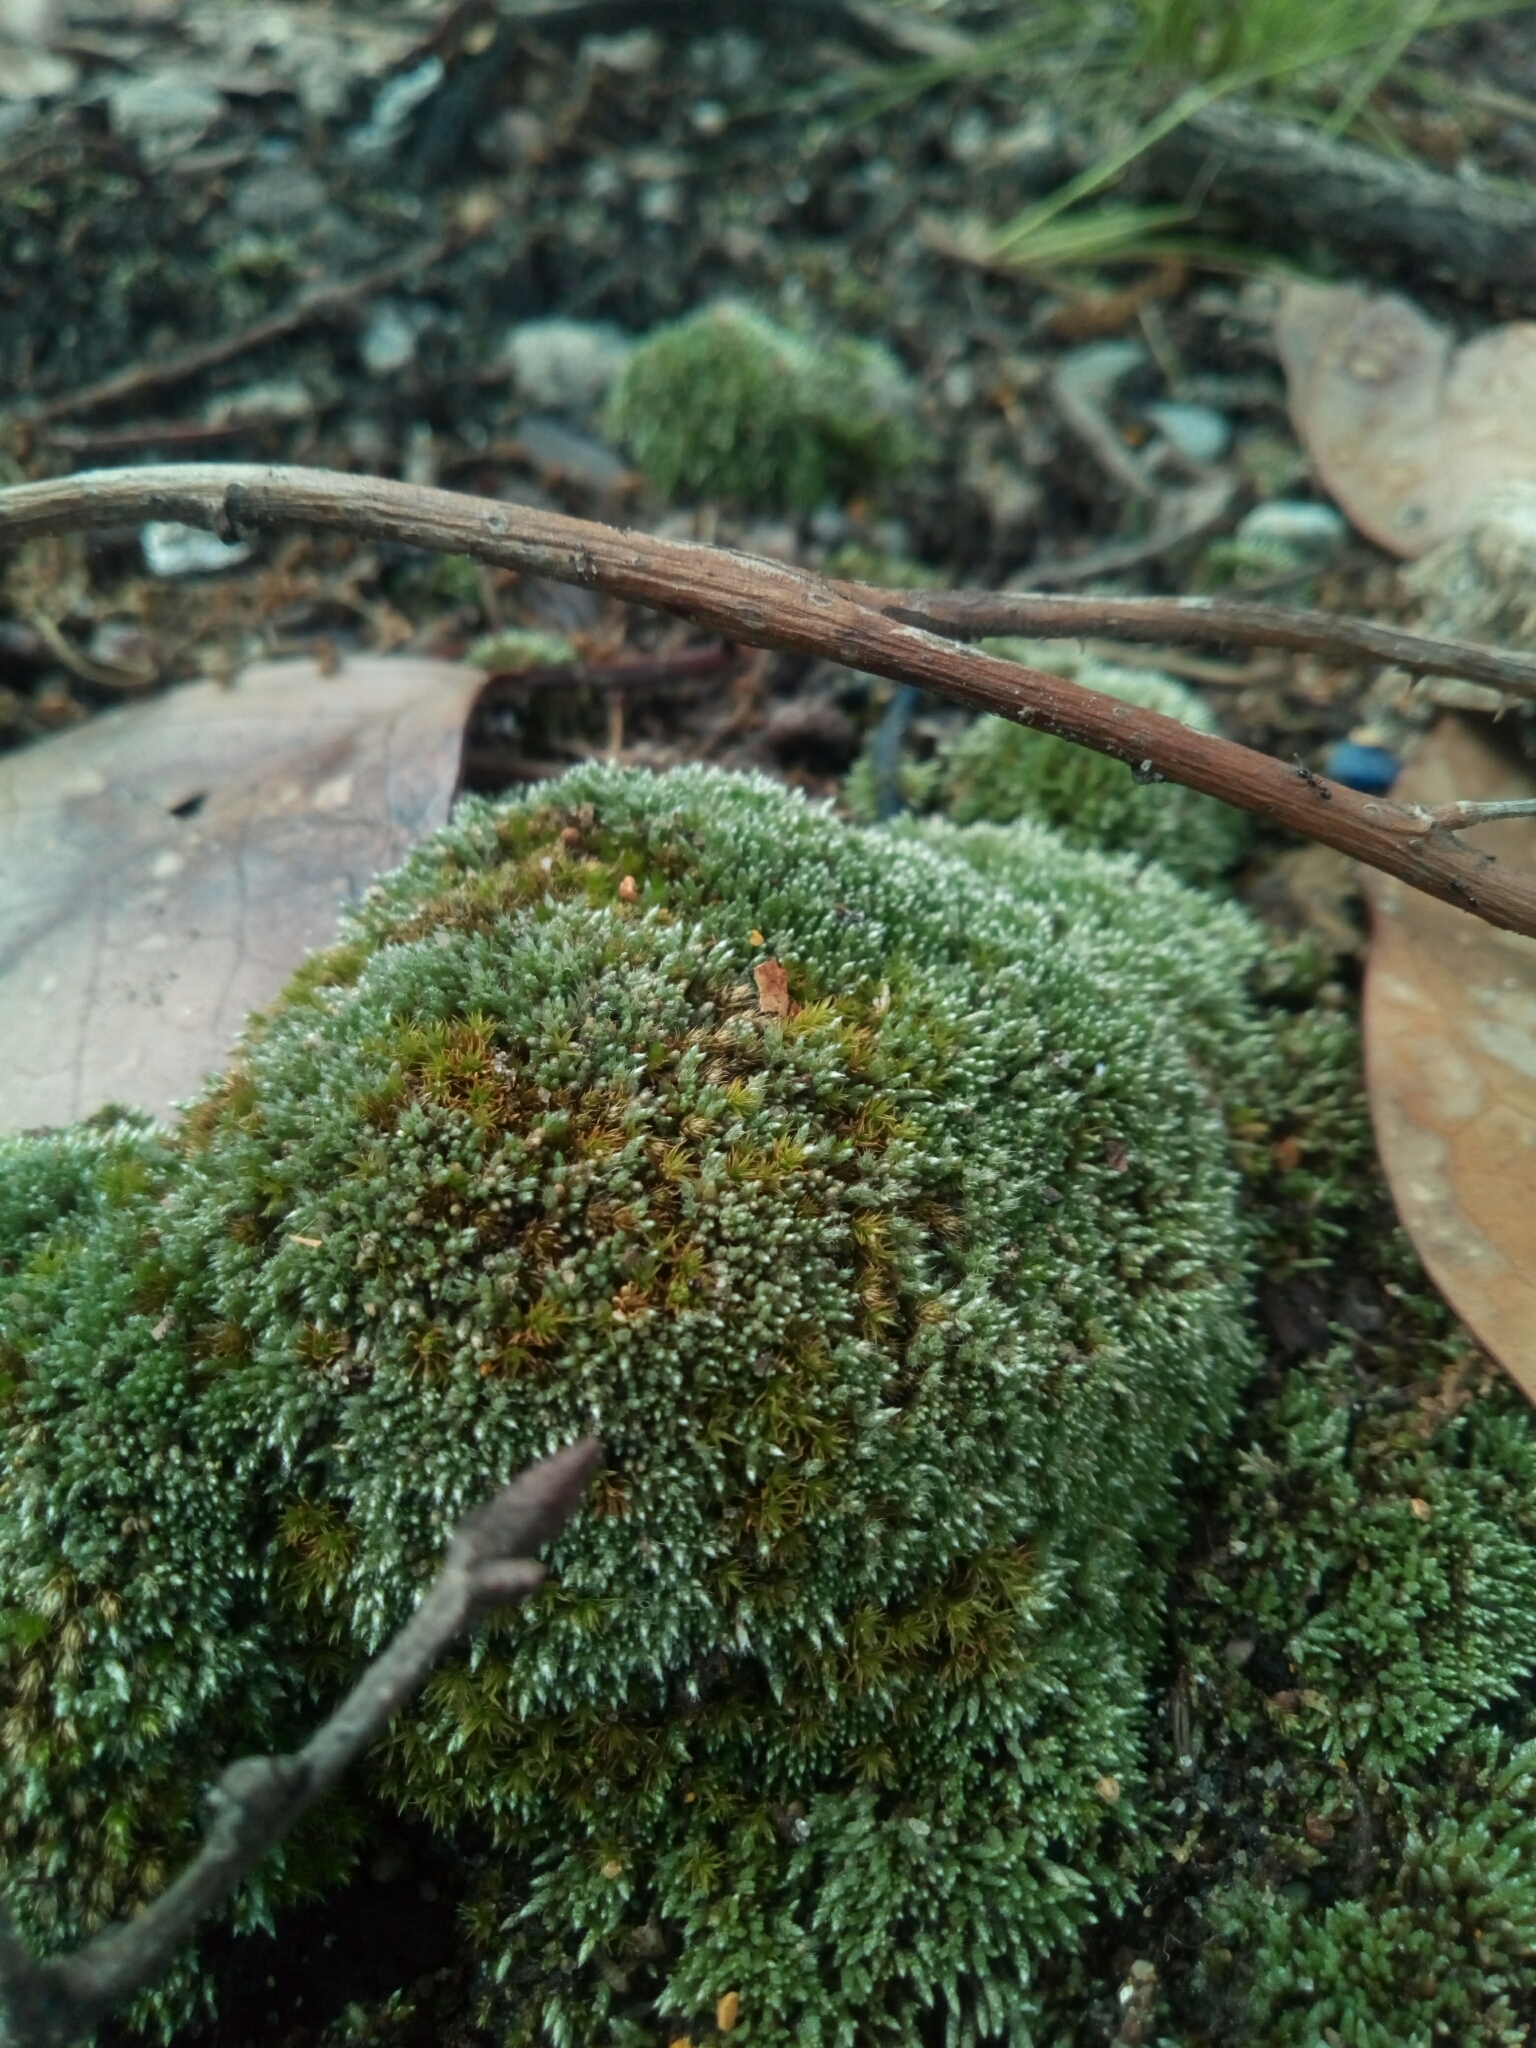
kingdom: Plantae
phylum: Bryophyta
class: Bryopsida
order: Bryales
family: Bryaceae
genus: Bryum
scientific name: Bryum argenteum
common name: Silver-moss
